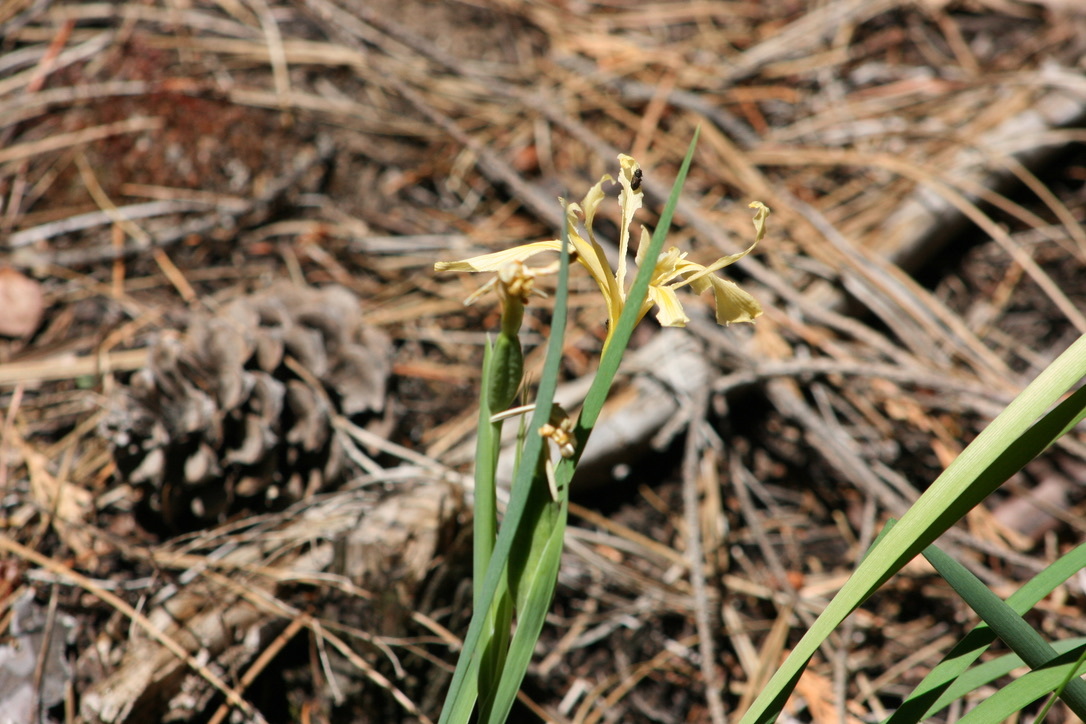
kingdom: Plantae
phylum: Tracheophyta
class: Liliopsida
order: Asparagales
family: Iridaceae
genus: Iris
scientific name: Iris hartwegii
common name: Sierra iris
